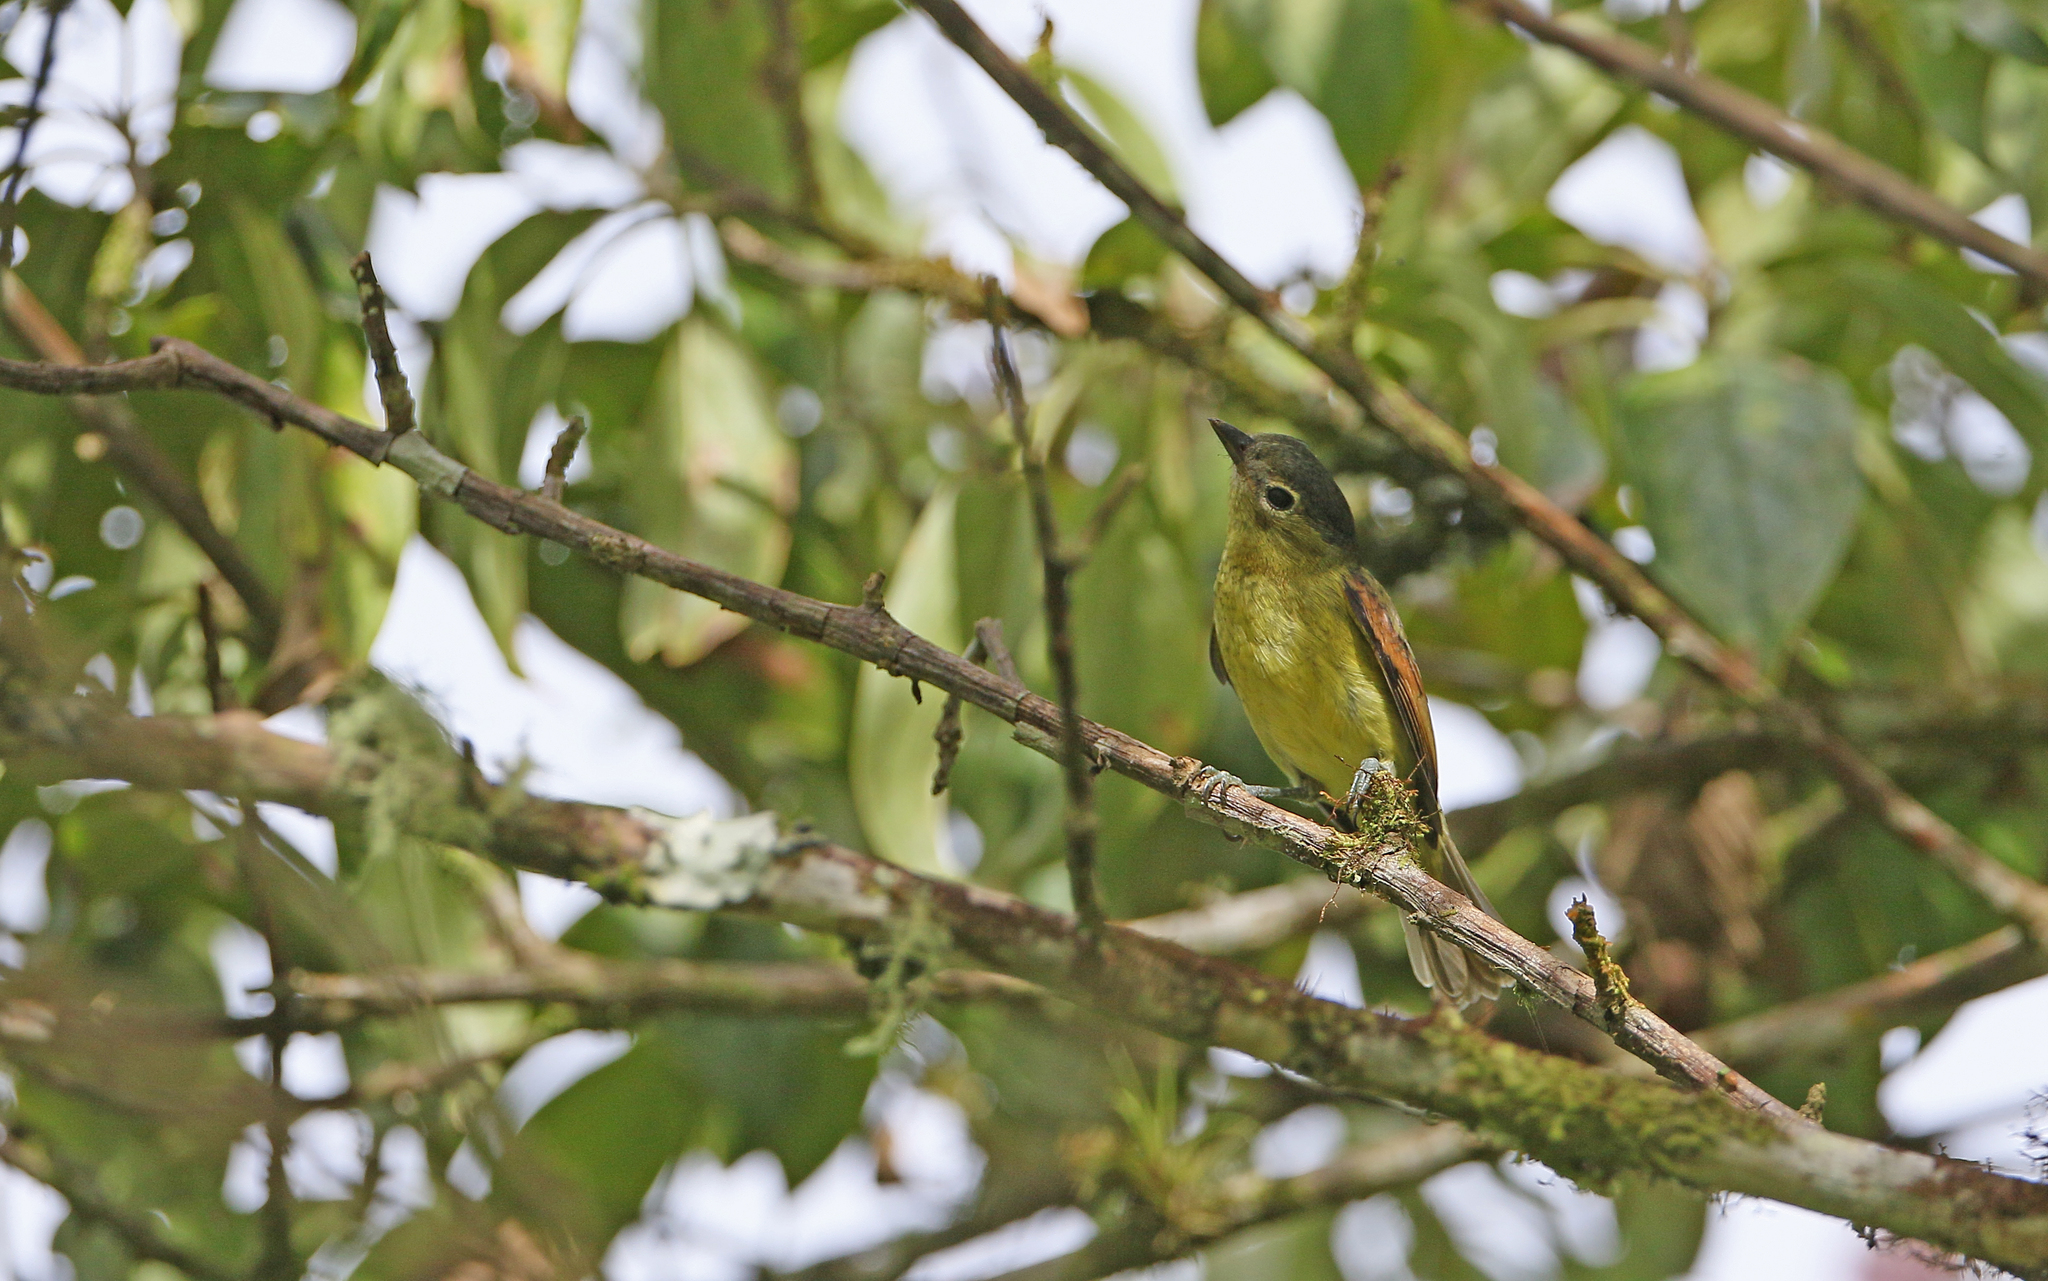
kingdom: Animalia
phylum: Chordata
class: Aves
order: Passeriformes
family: Cotingidae
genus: Pachyramphus
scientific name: Pachyramphus versicolor
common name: Barred becard
